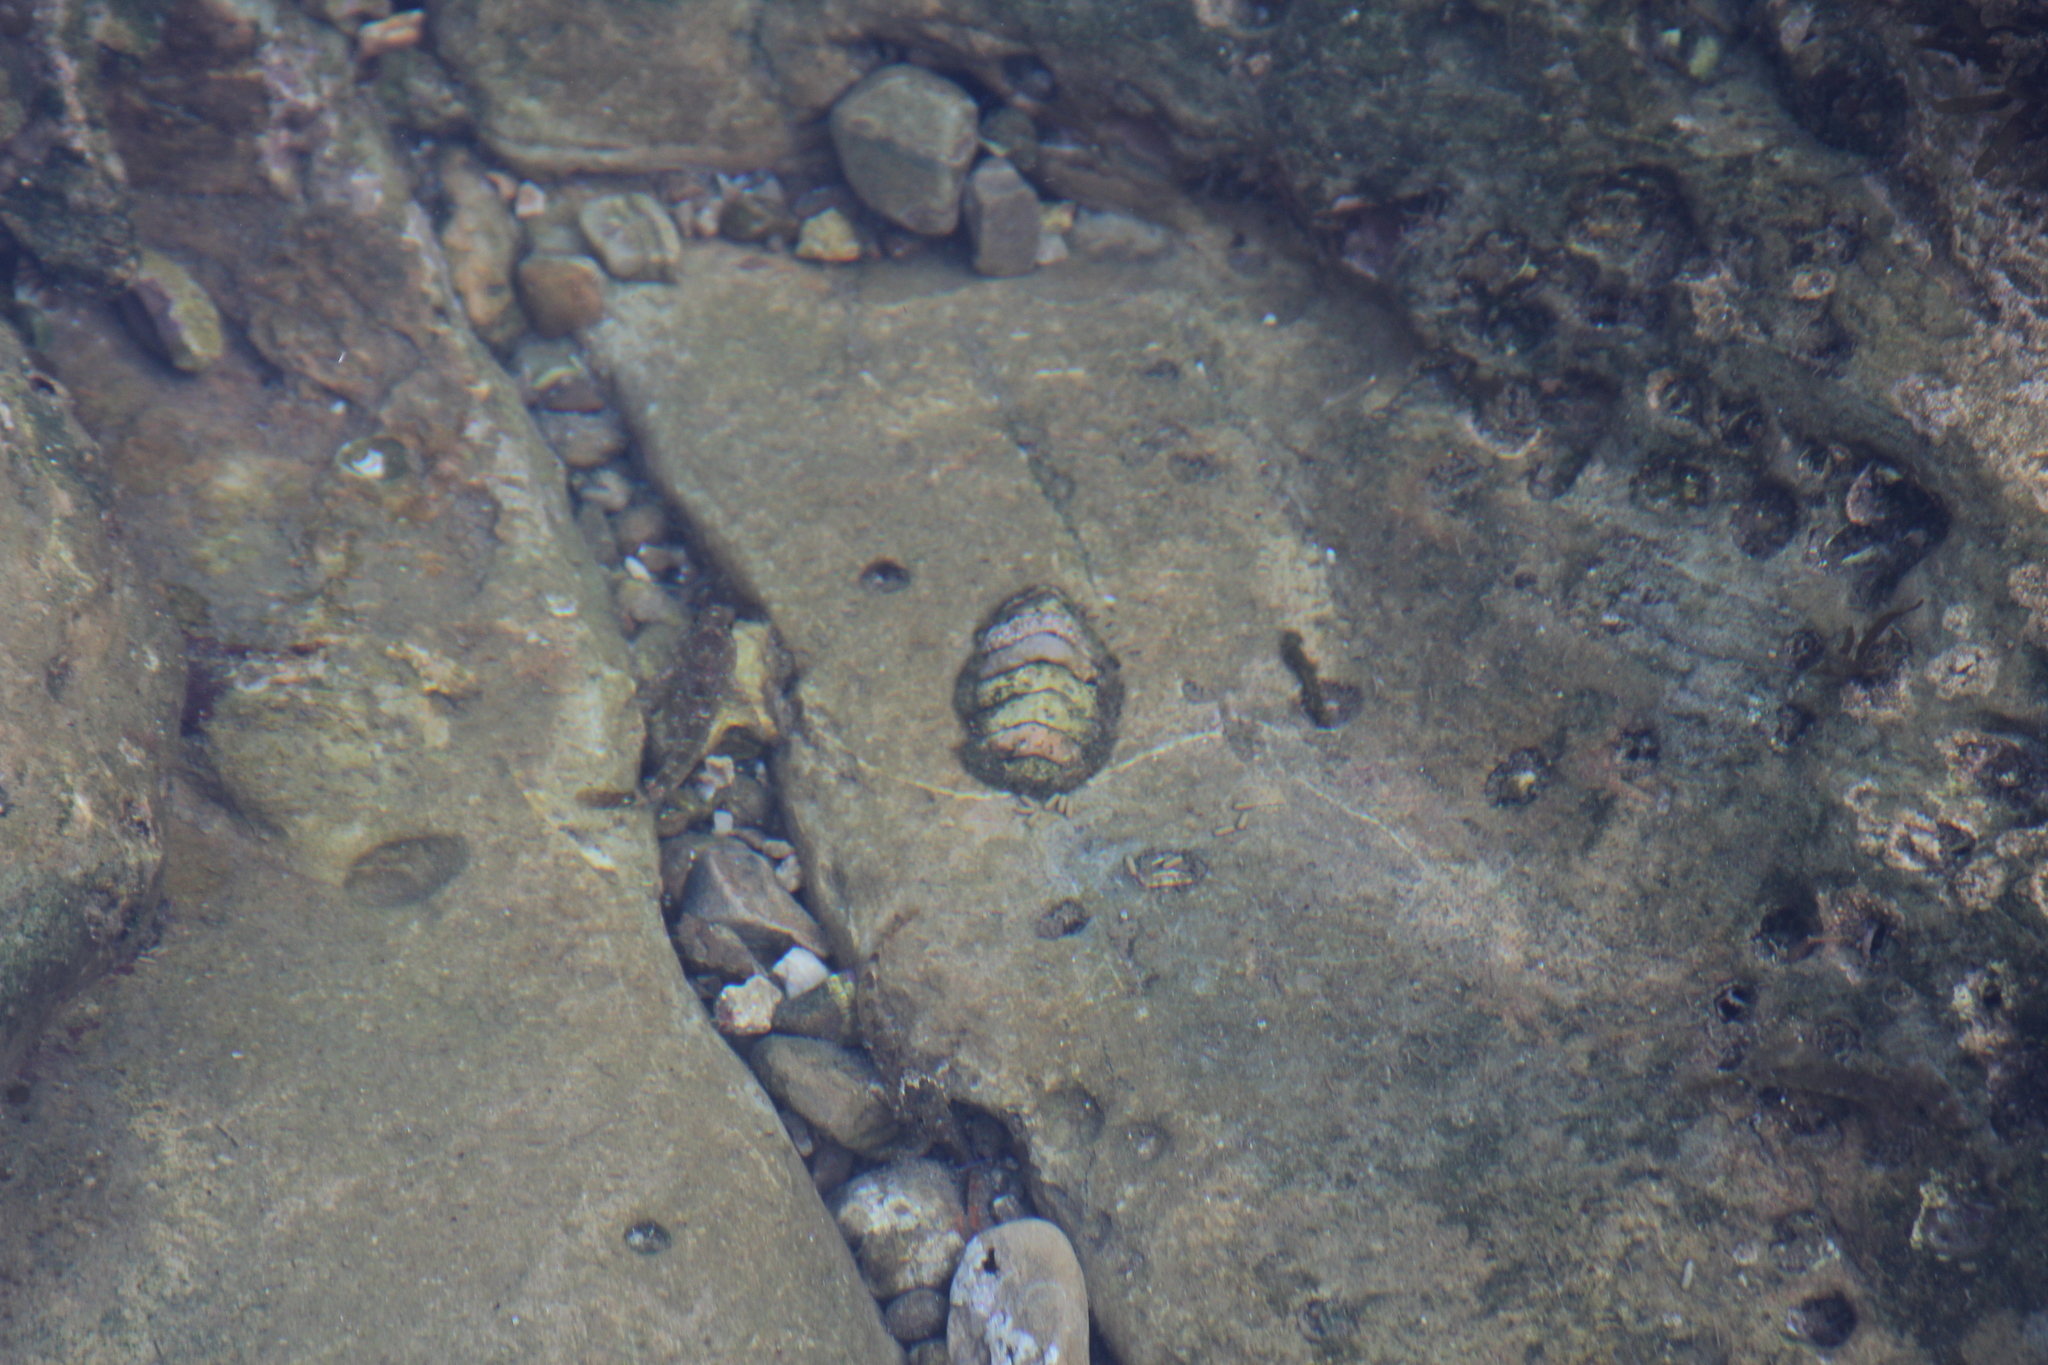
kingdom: Animalia
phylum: Mollusca
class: Polyplacophora
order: Chitonida
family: Mopaliidae
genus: Mopalia
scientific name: Mopalia muscosa
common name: Mossy chiton
